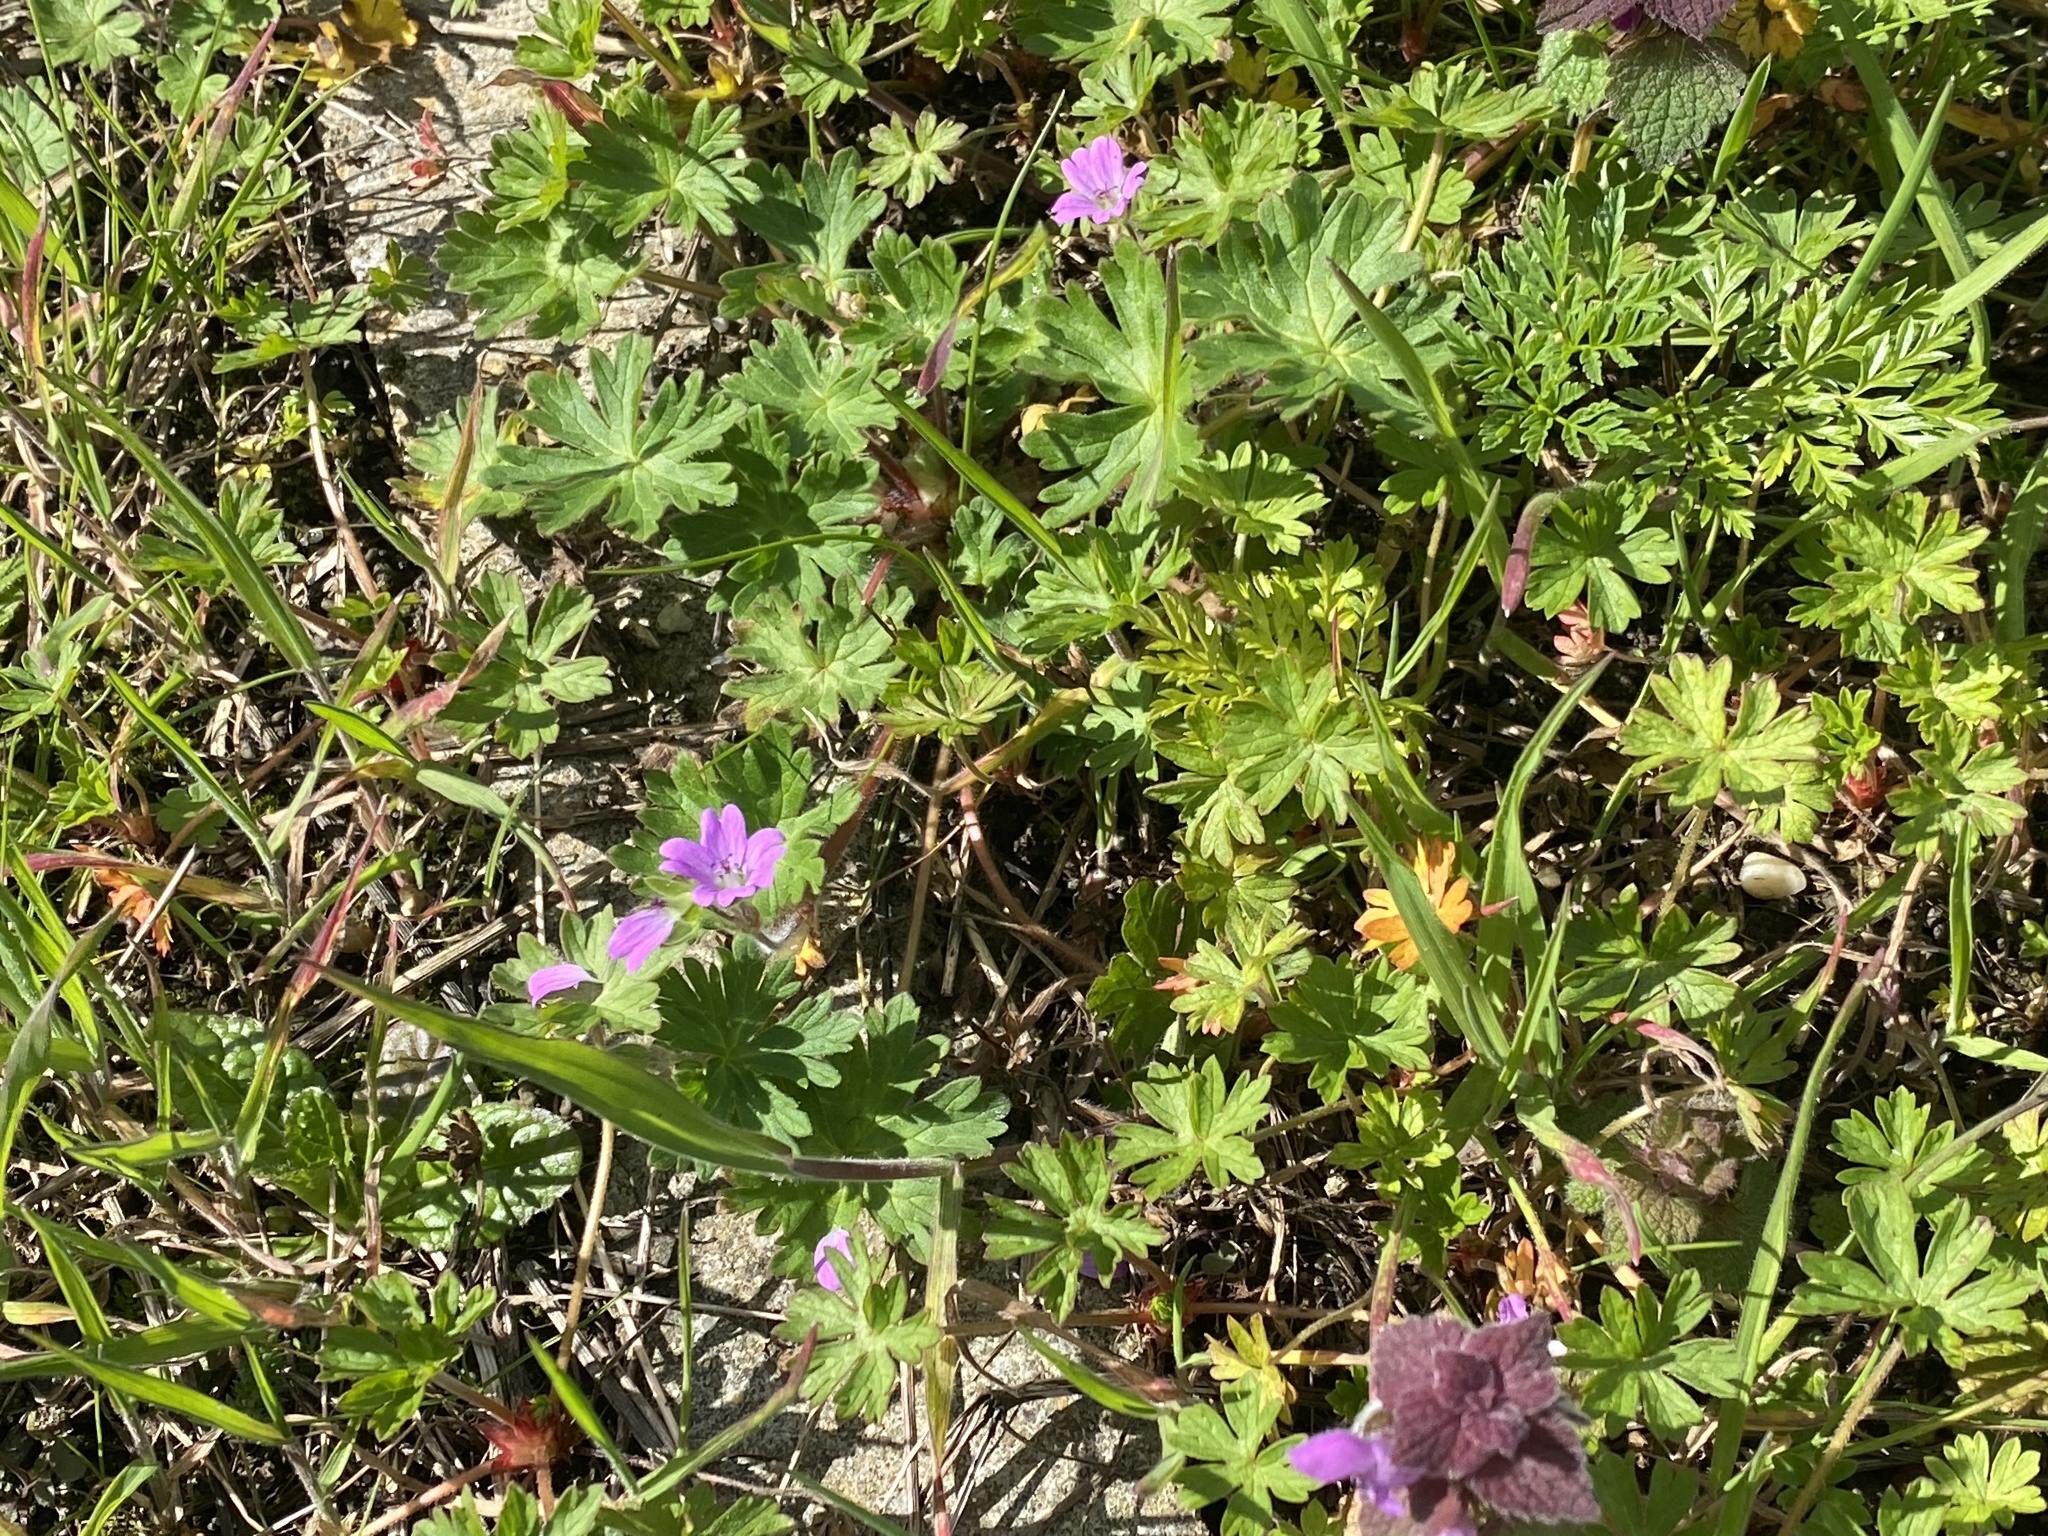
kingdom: Plantae
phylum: Tracheophyta
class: Magnoliopsida
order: Geraniales
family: Geraniaceae
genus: Geranium
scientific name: Geranium molle
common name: Dove's-foot crane's-bill
